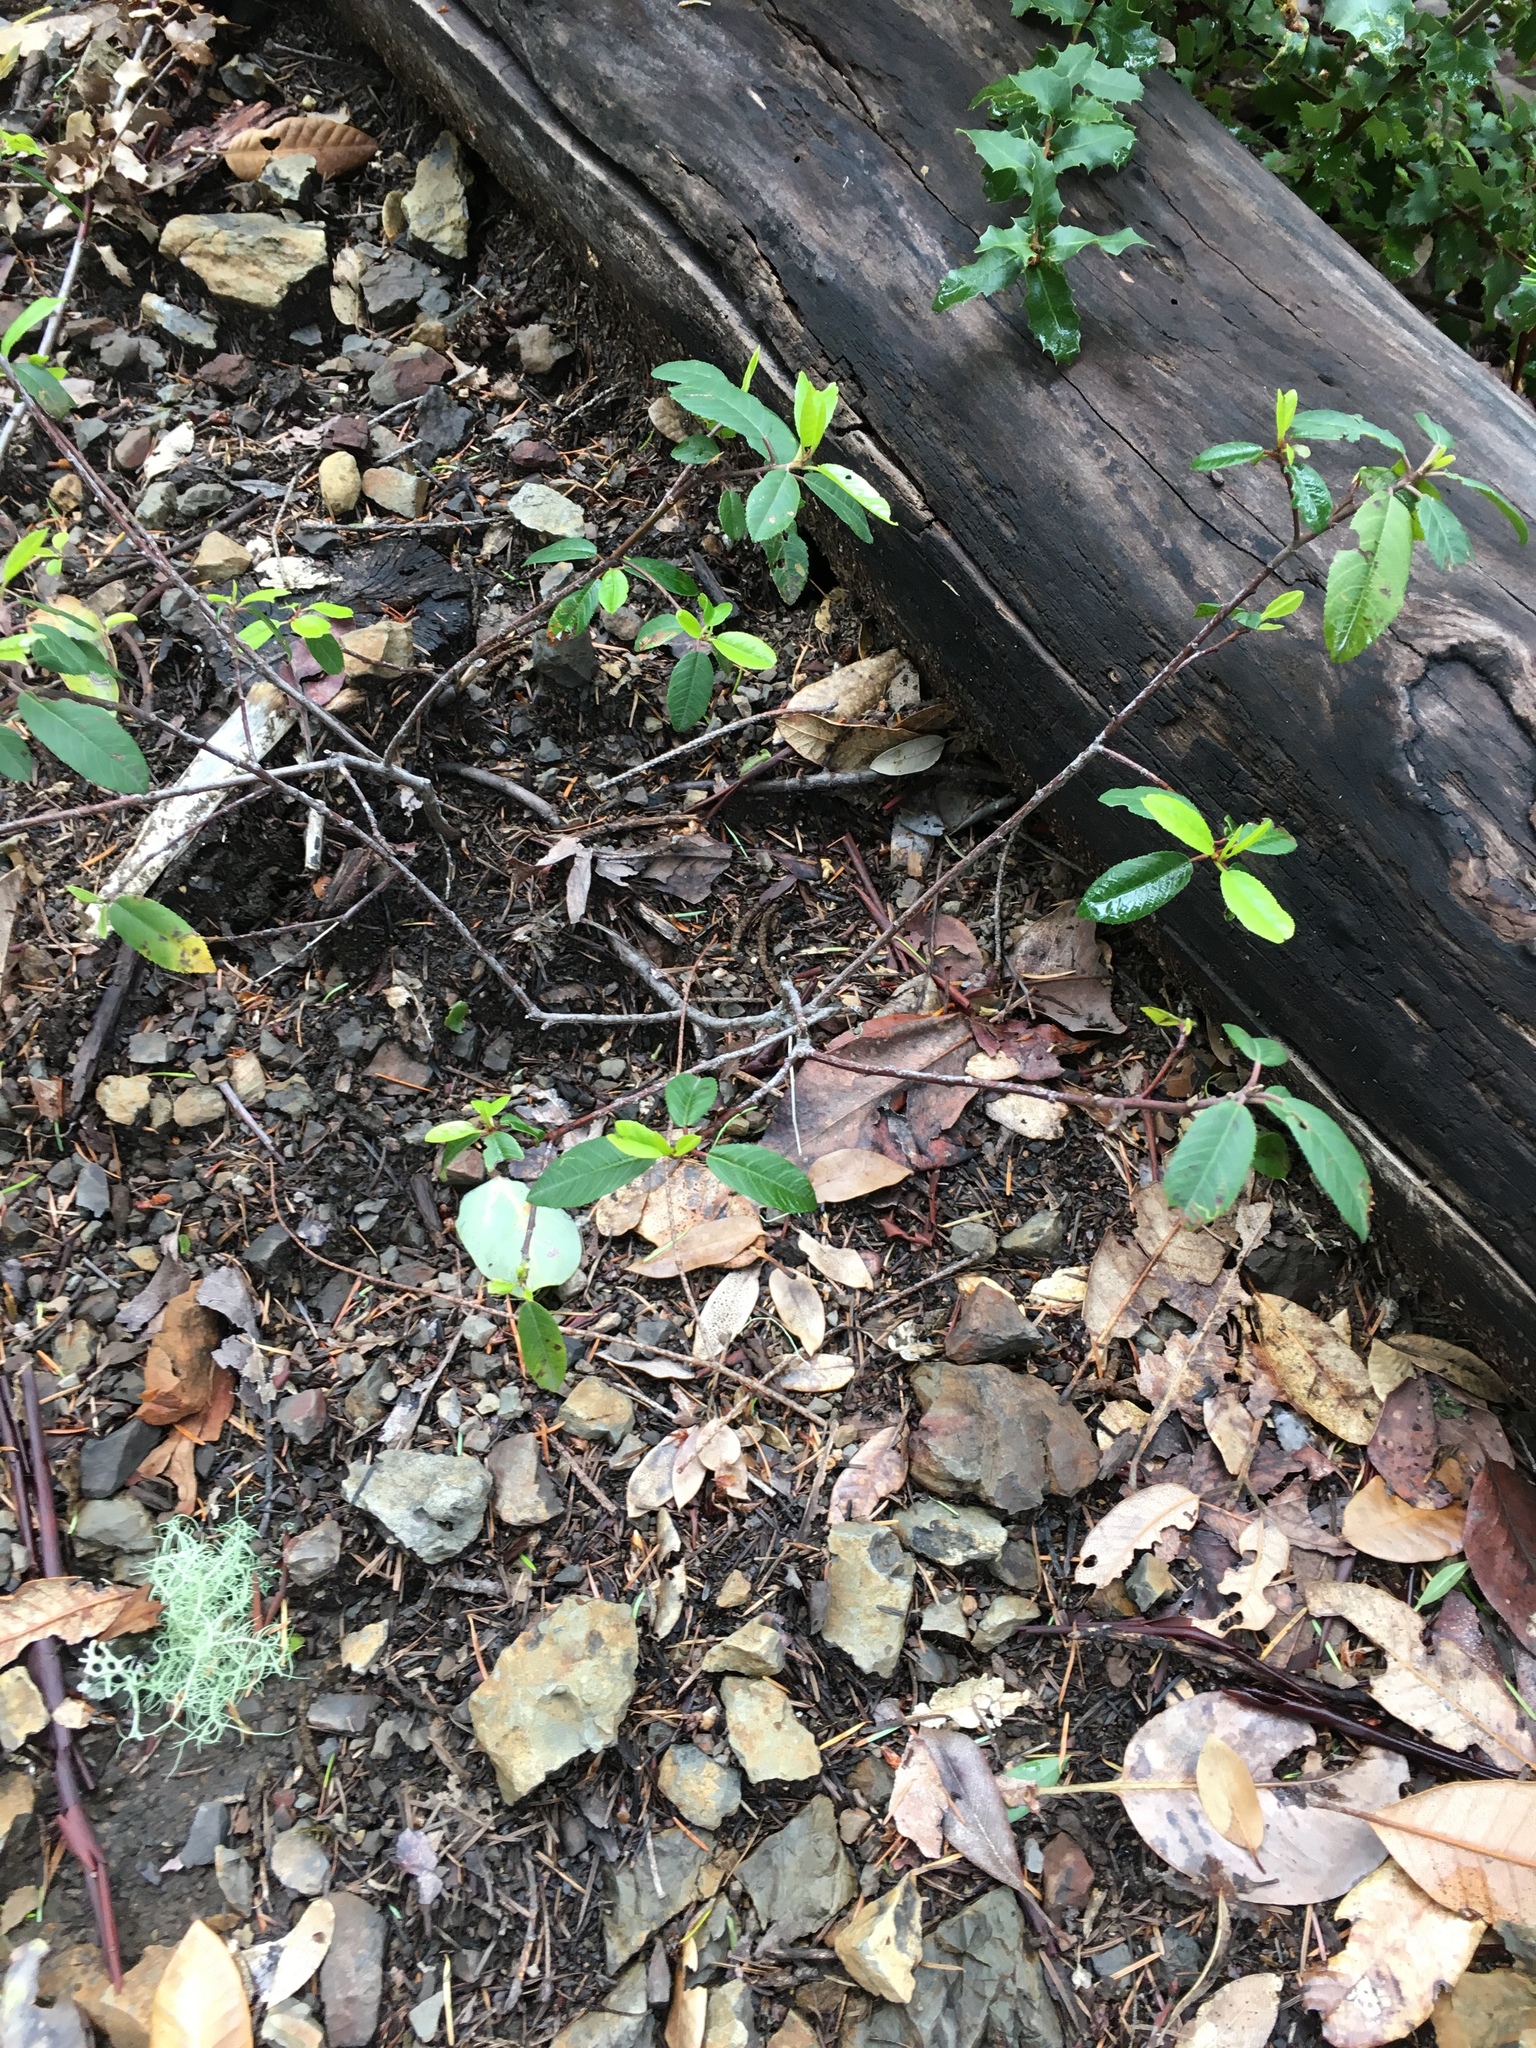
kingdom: Plantae
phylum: Tracheophyta
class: Magnoliopsida
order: Rosales
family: Rhamnaceae
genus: Frangula
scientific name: Frangula californica
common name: California buckthorn
